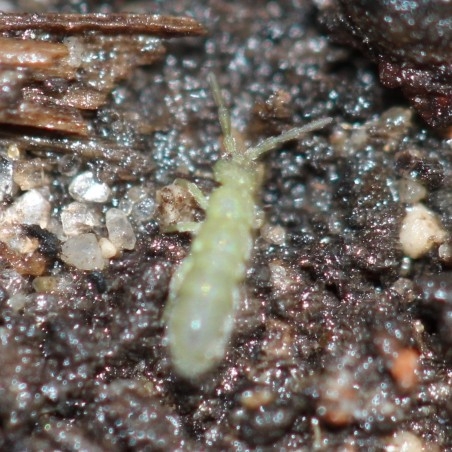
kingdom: Animalia
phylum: Arthropoda
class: Collembola
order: Entomobryomorpha
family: Isotomidae
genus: Isotoma
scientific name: Isotoma viridis
